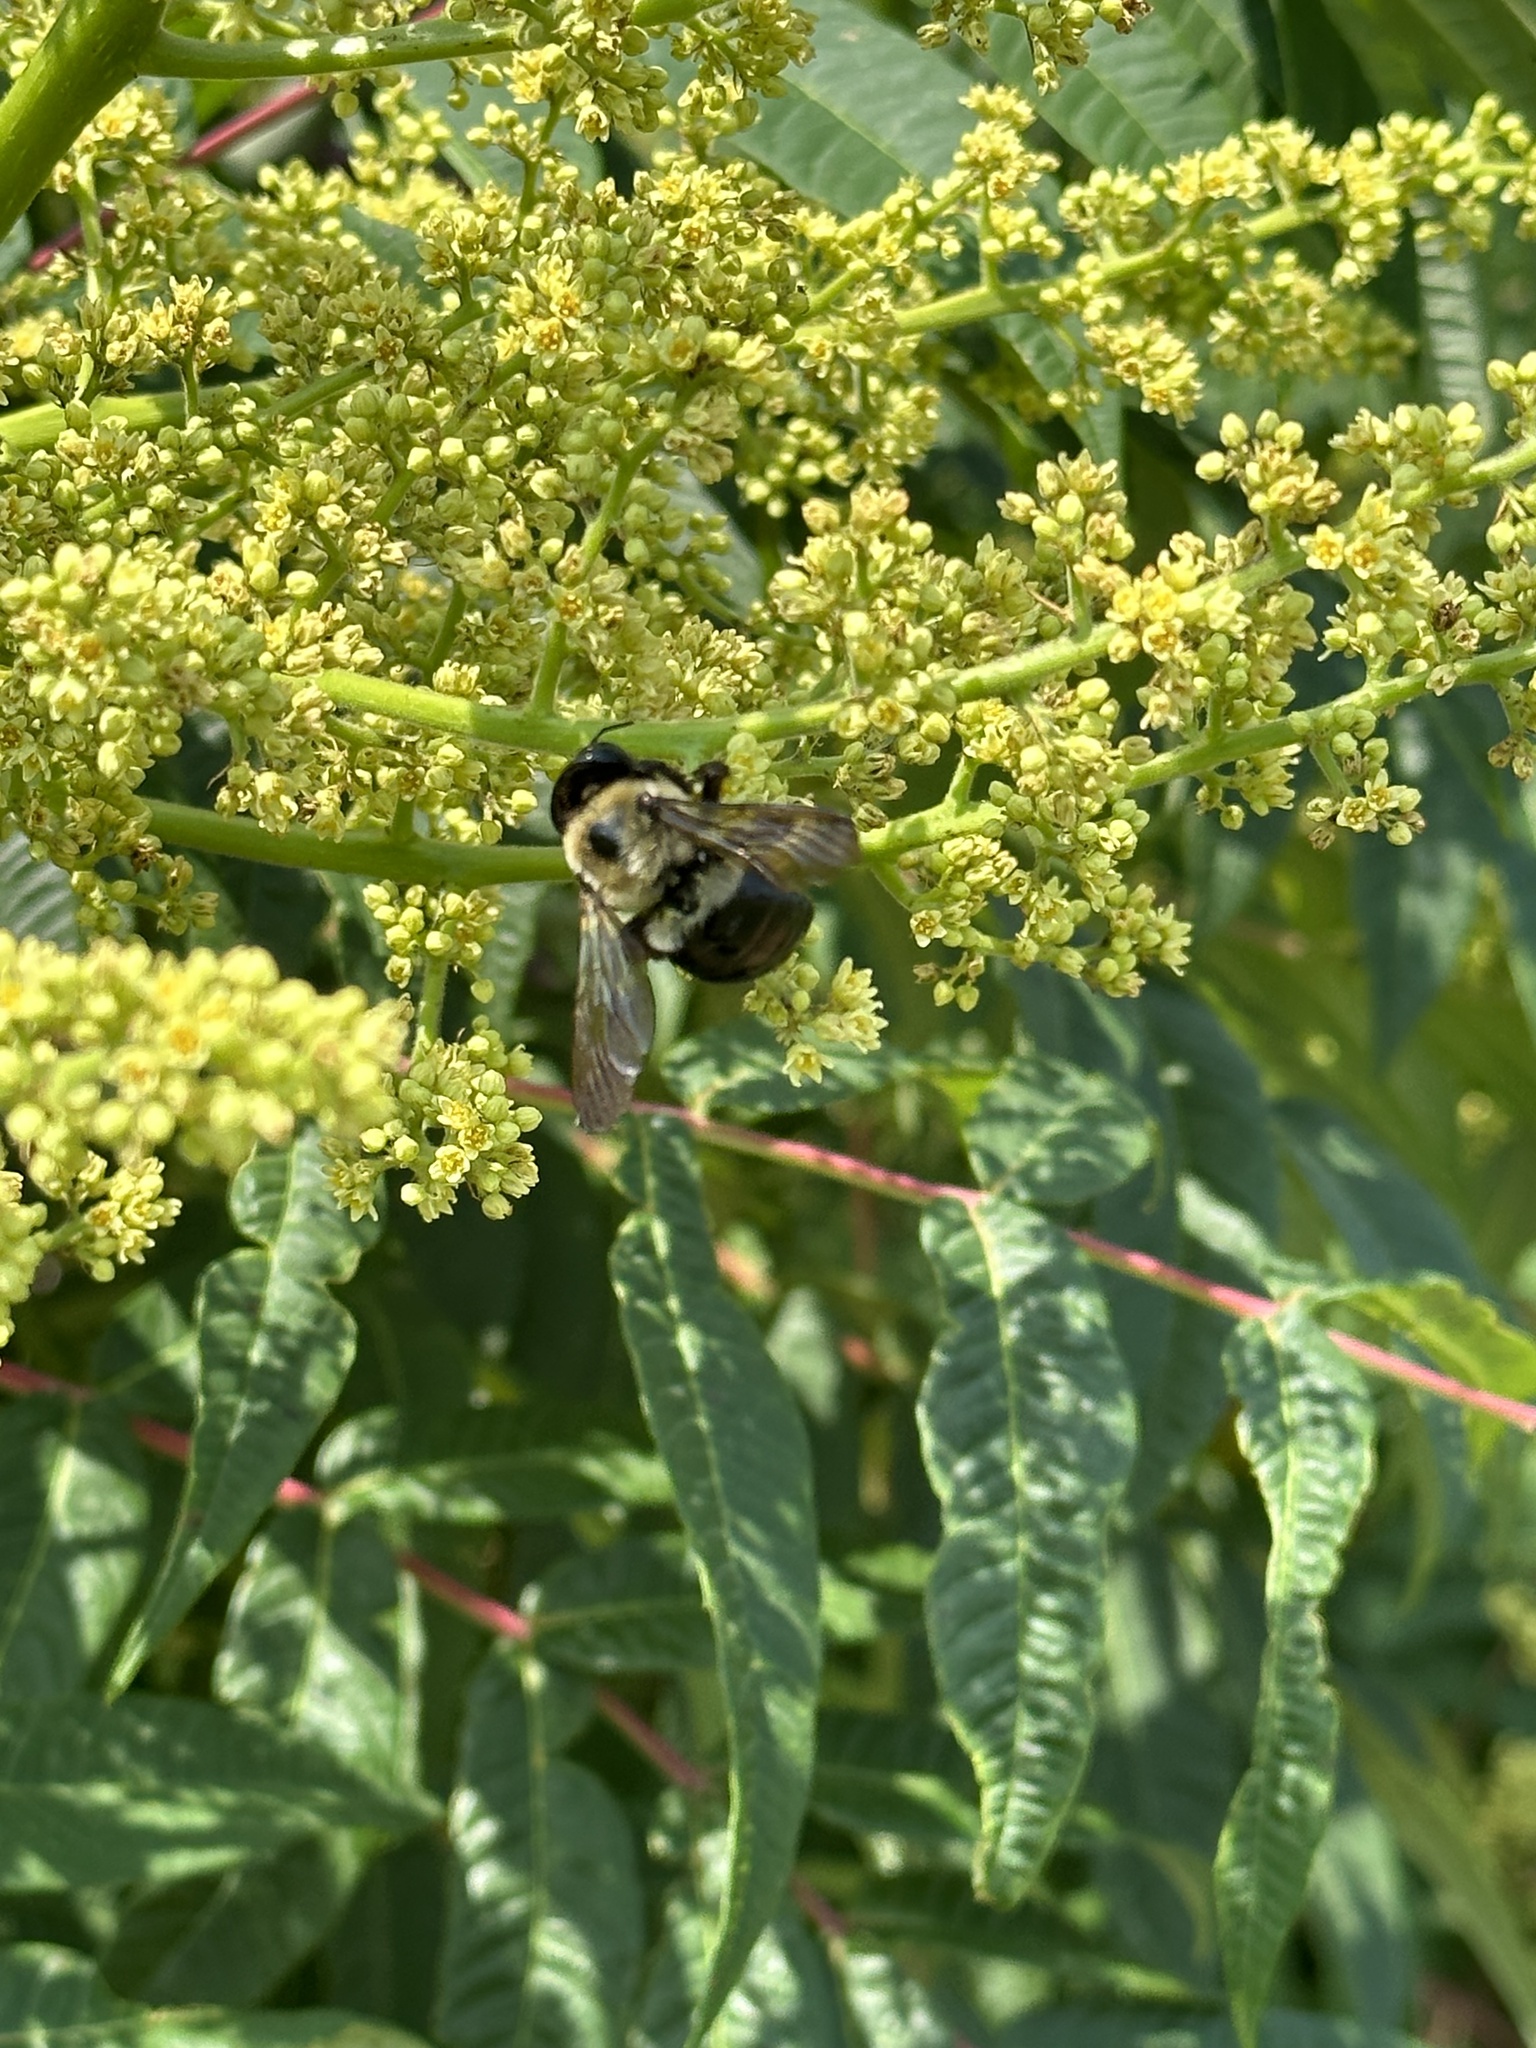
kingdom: Animalia
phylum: Arthropoda
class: Insecta
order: Hymenoptera
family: Apidae
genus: Xylocopa
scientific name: Xylocopa virginica
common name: Carpenter bee
